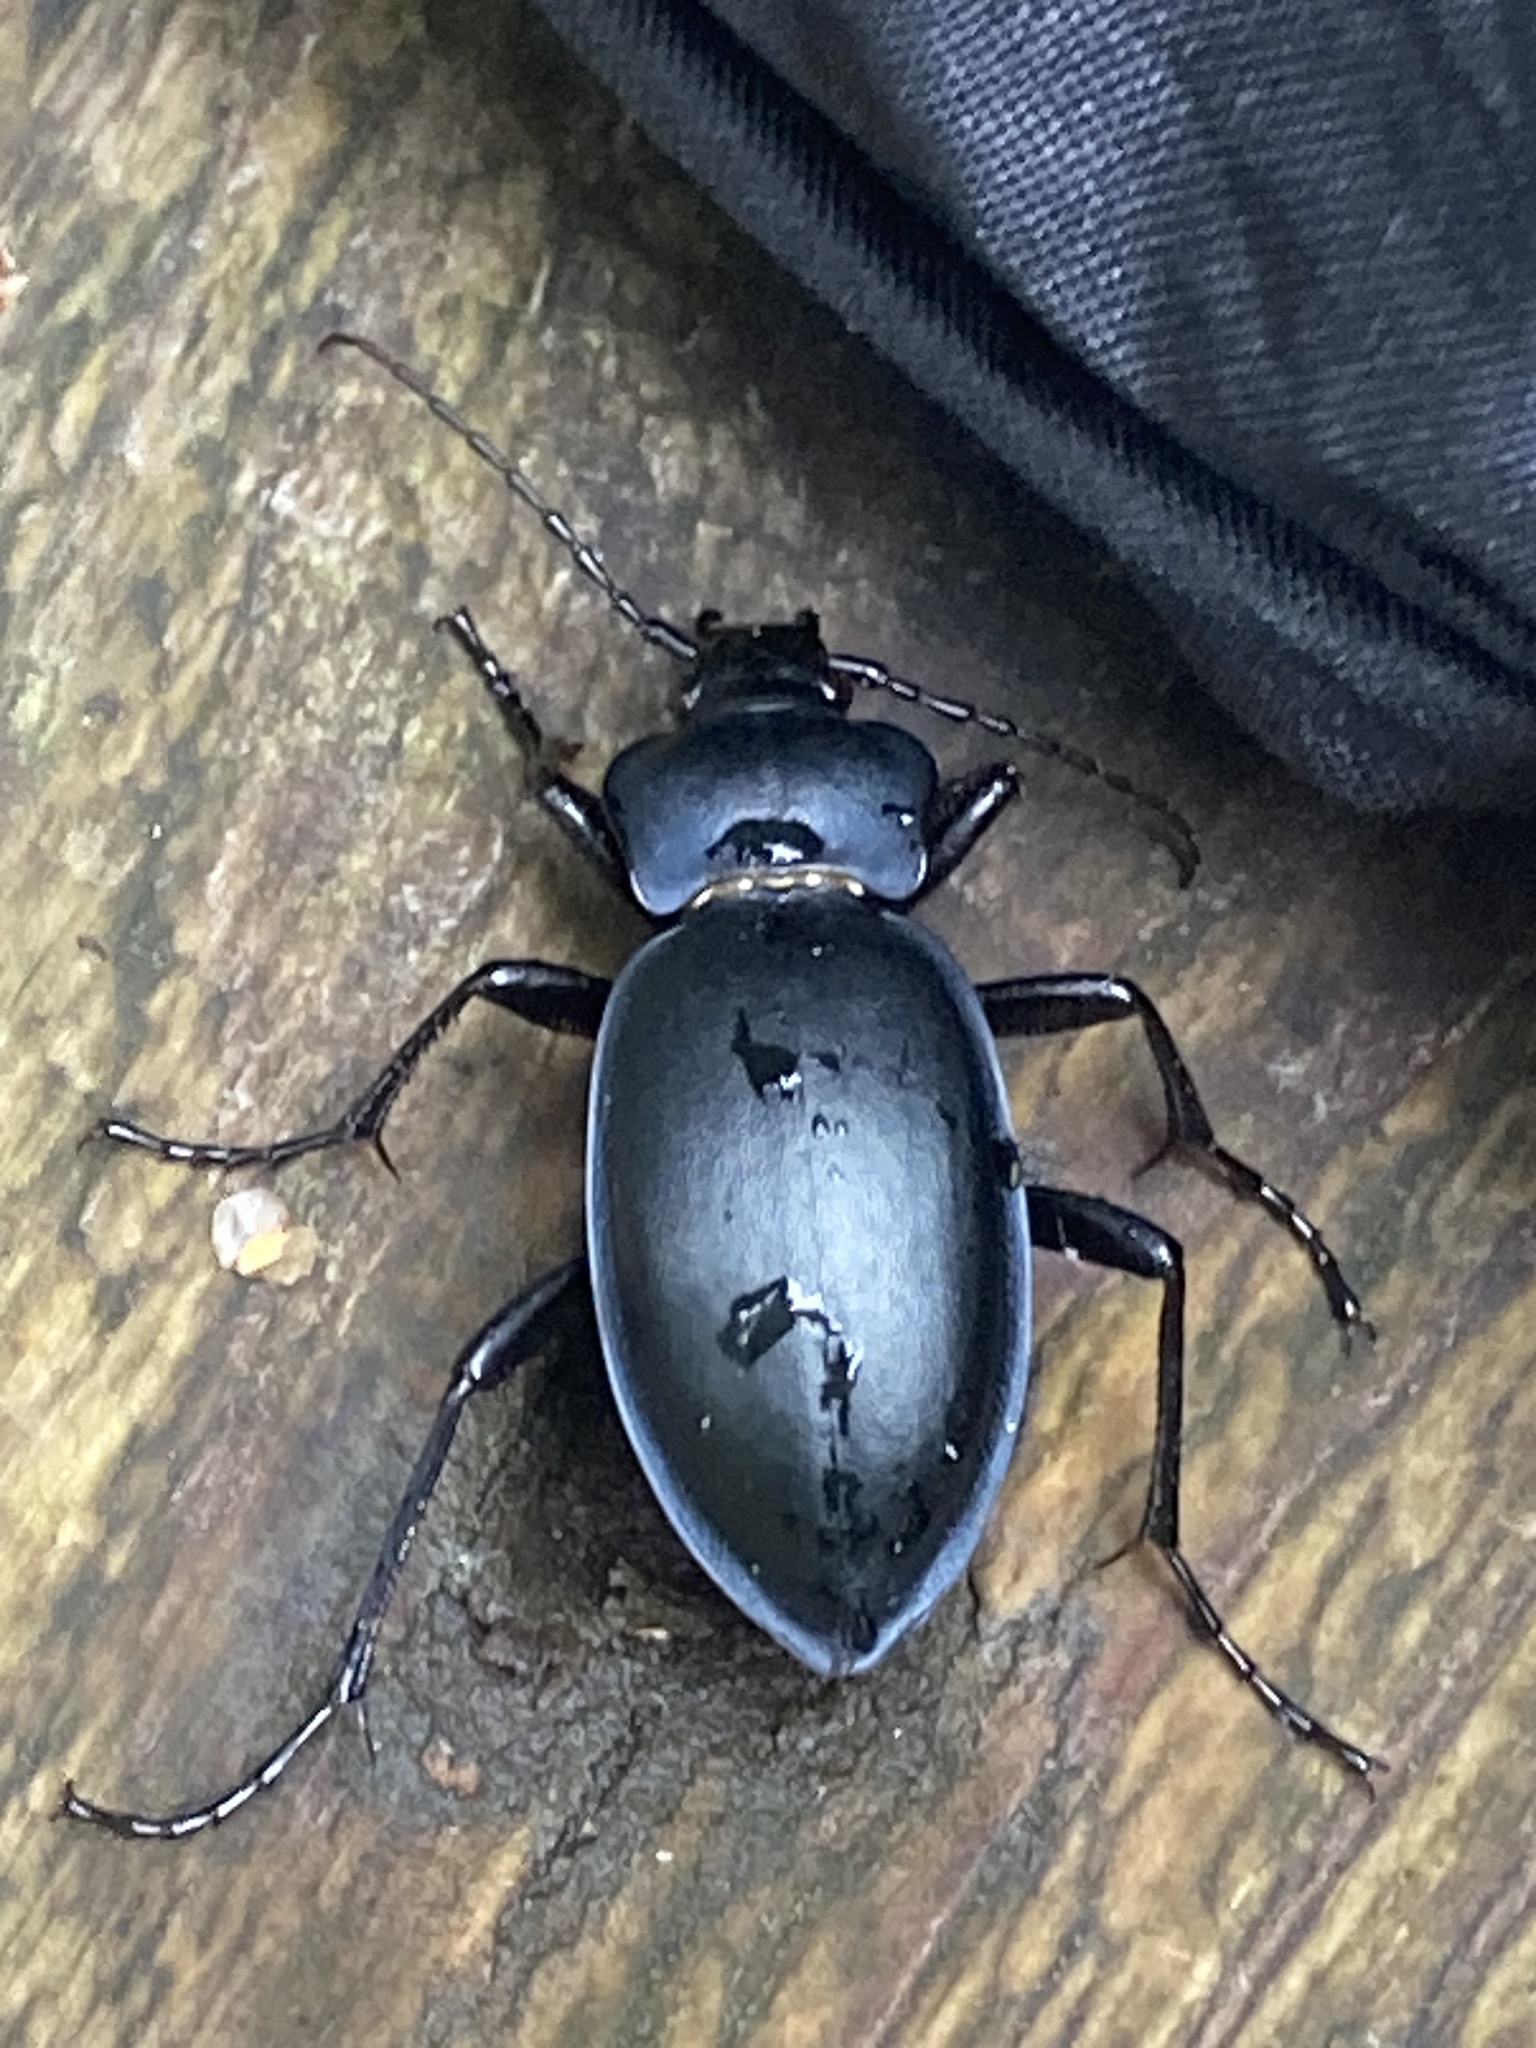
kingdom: Animalia
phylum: Arthropoda
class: Insecta
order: Coleoptera
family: Carabidae
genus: Carabus
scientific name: Carabus glabratus
